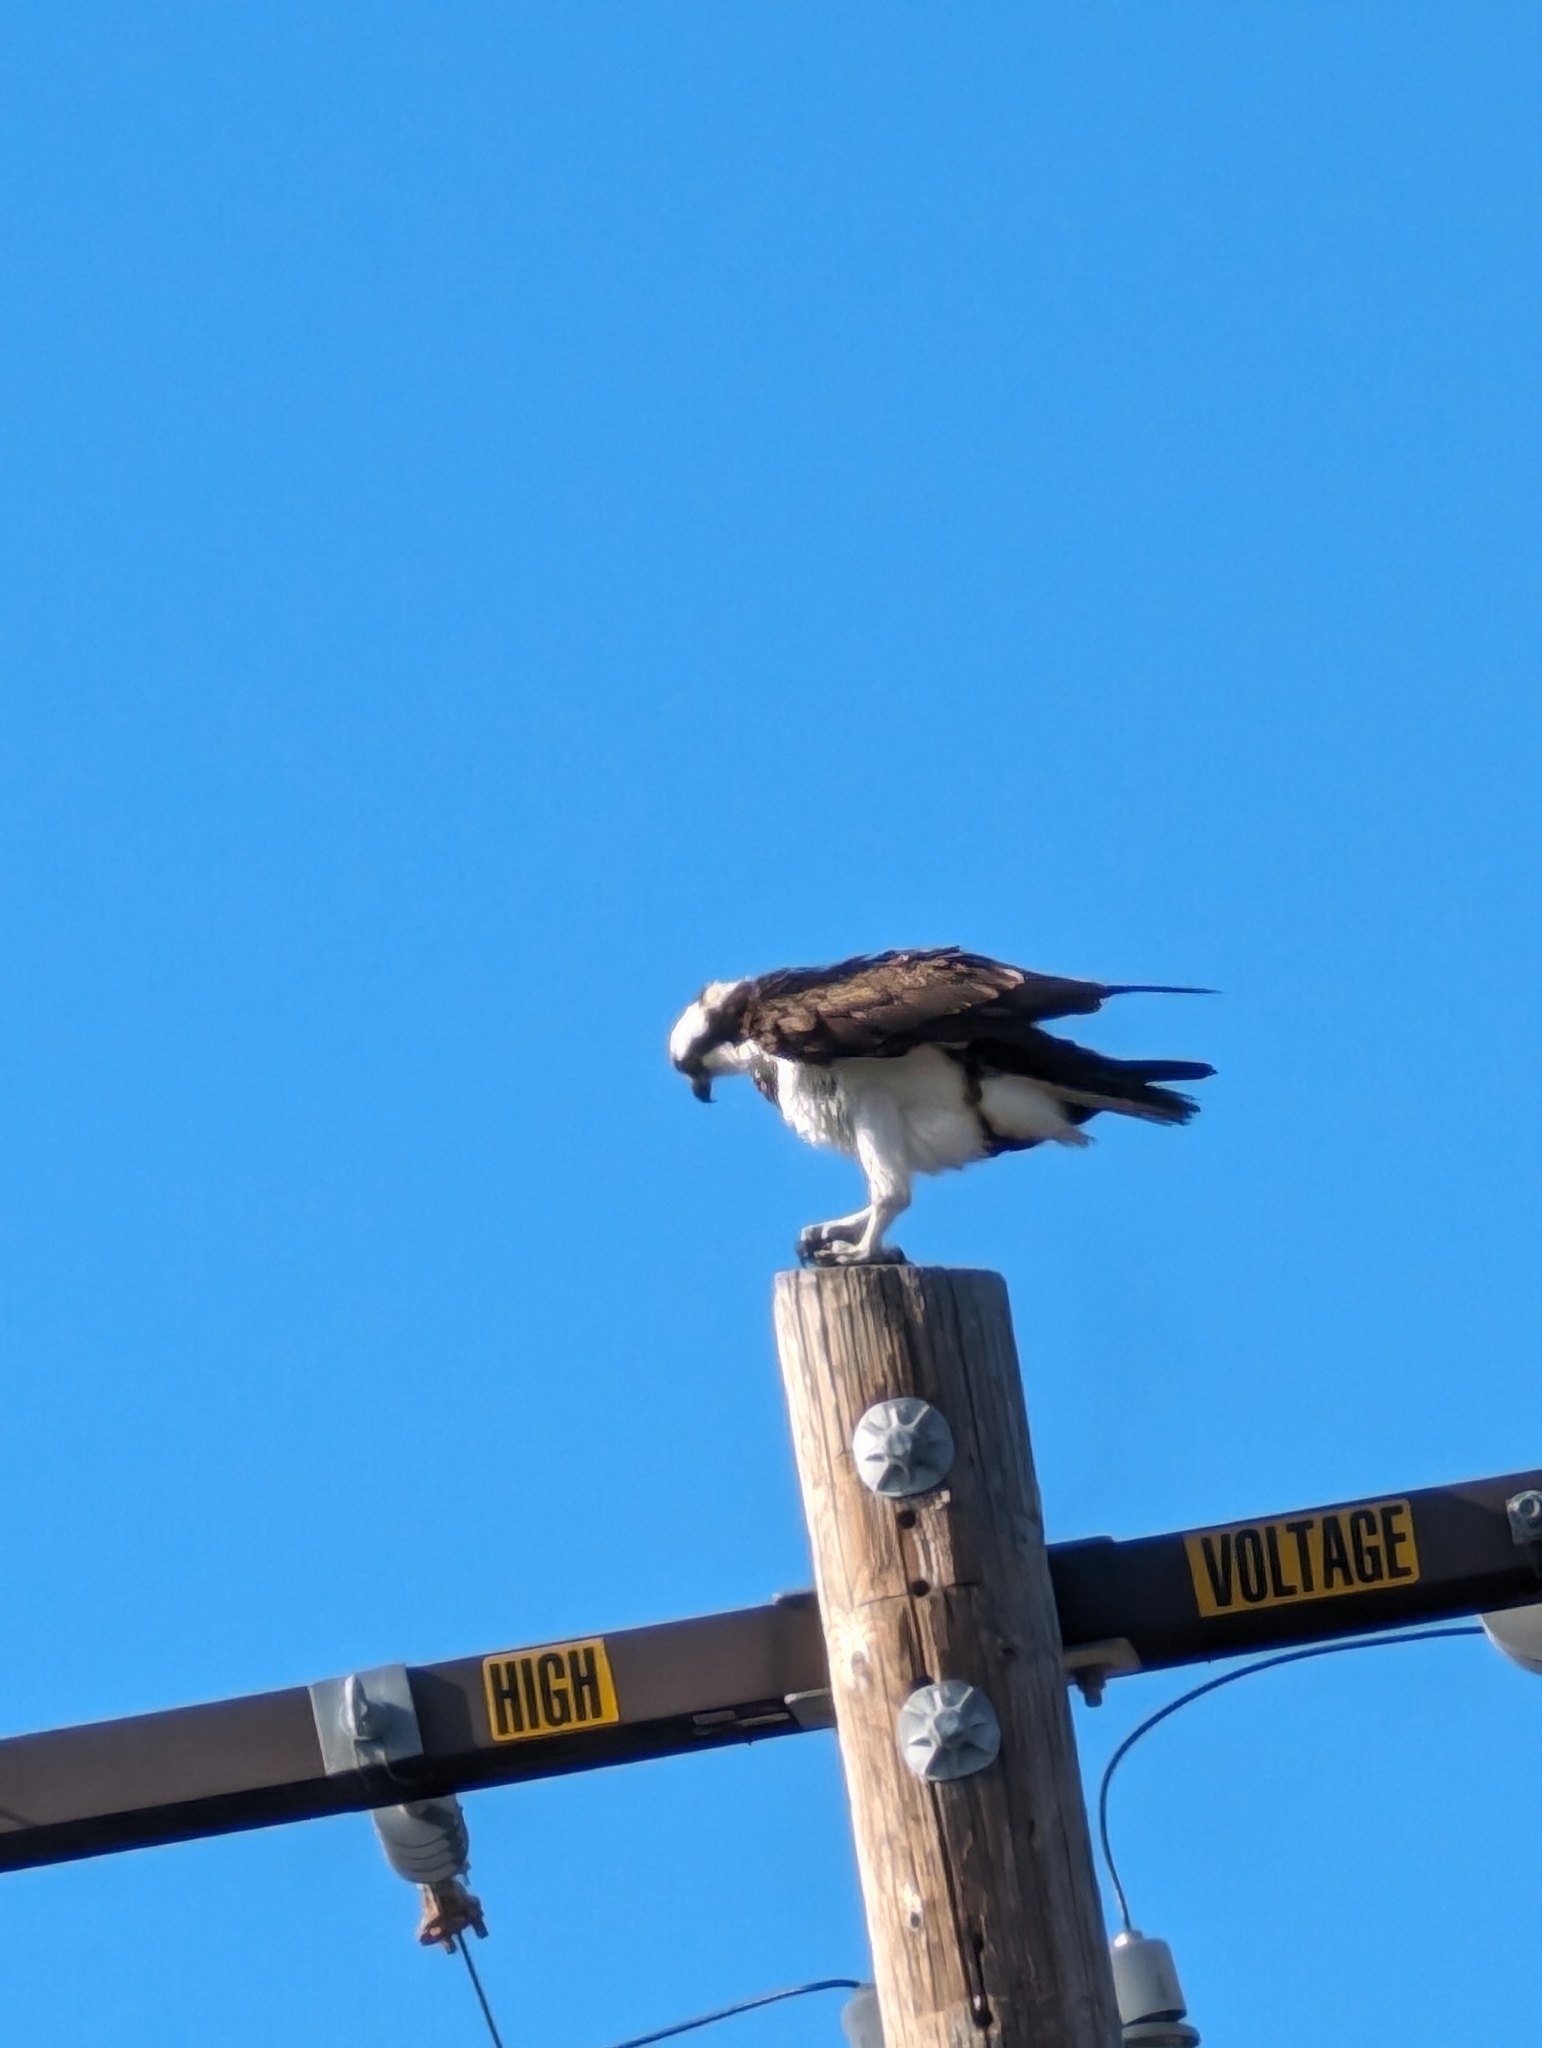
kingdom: Animalia
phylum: Chordata
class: Aves
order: Accipitriformes
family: Pandionidae
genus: Pandion
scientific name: Pandion haliaetus
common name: Osprey
